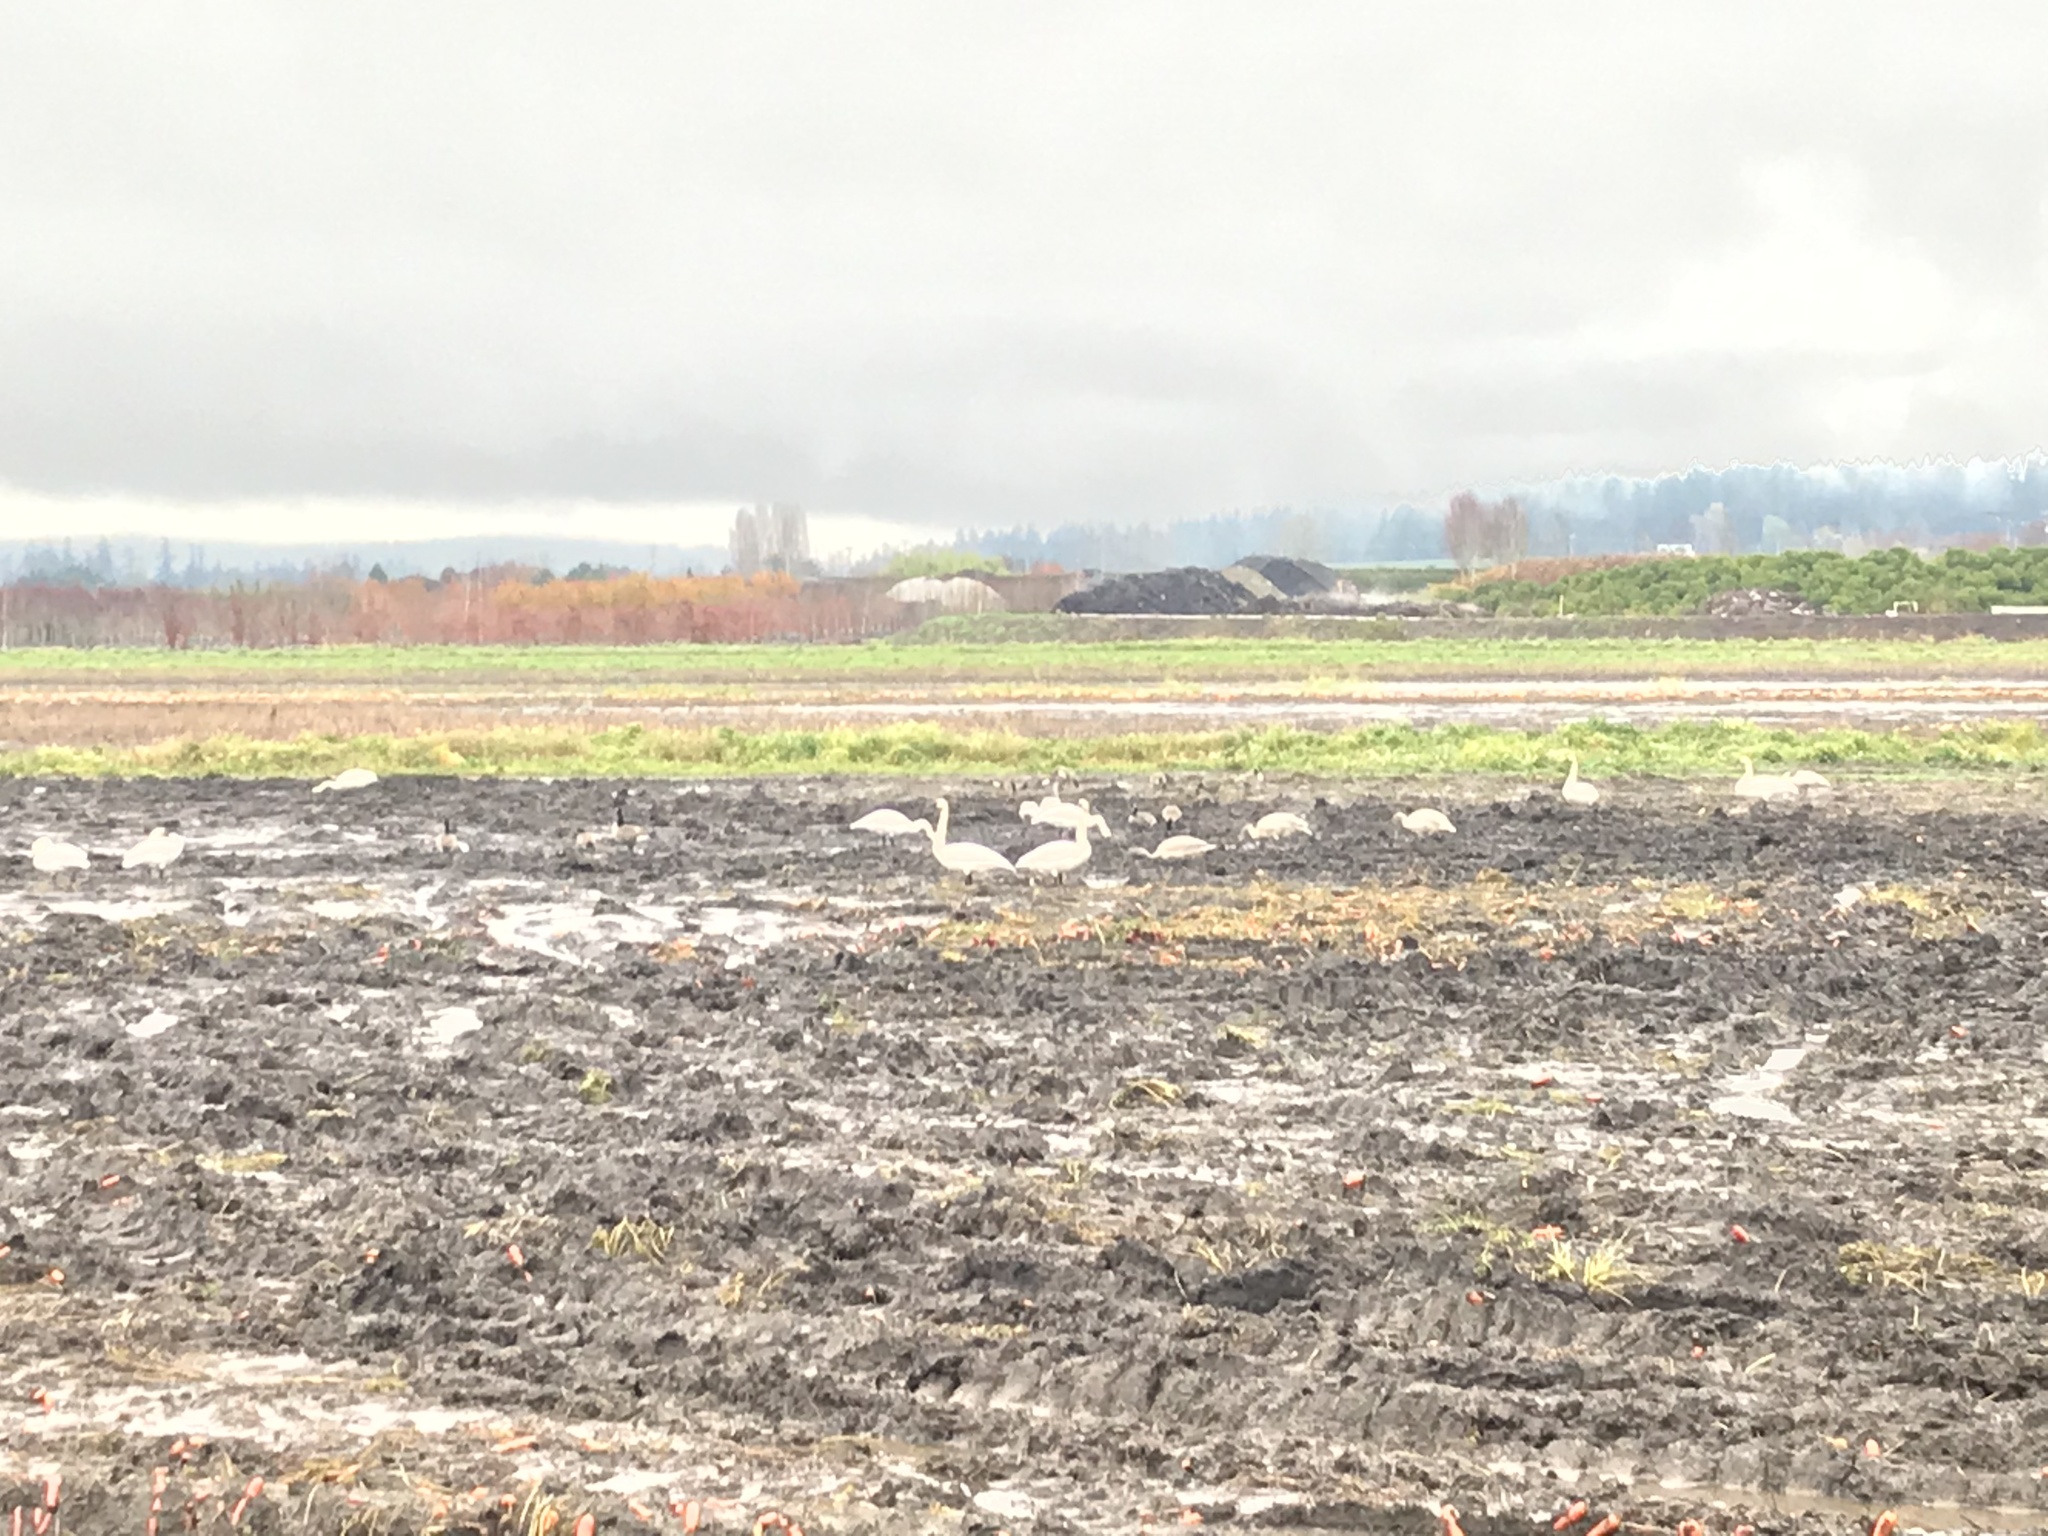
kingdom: Animalia
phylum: Chordata
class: Aves
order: Anseriformes
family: Anatidae
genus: Cygnus
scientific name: Cygnus buccinator
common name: Trumpeter swan
